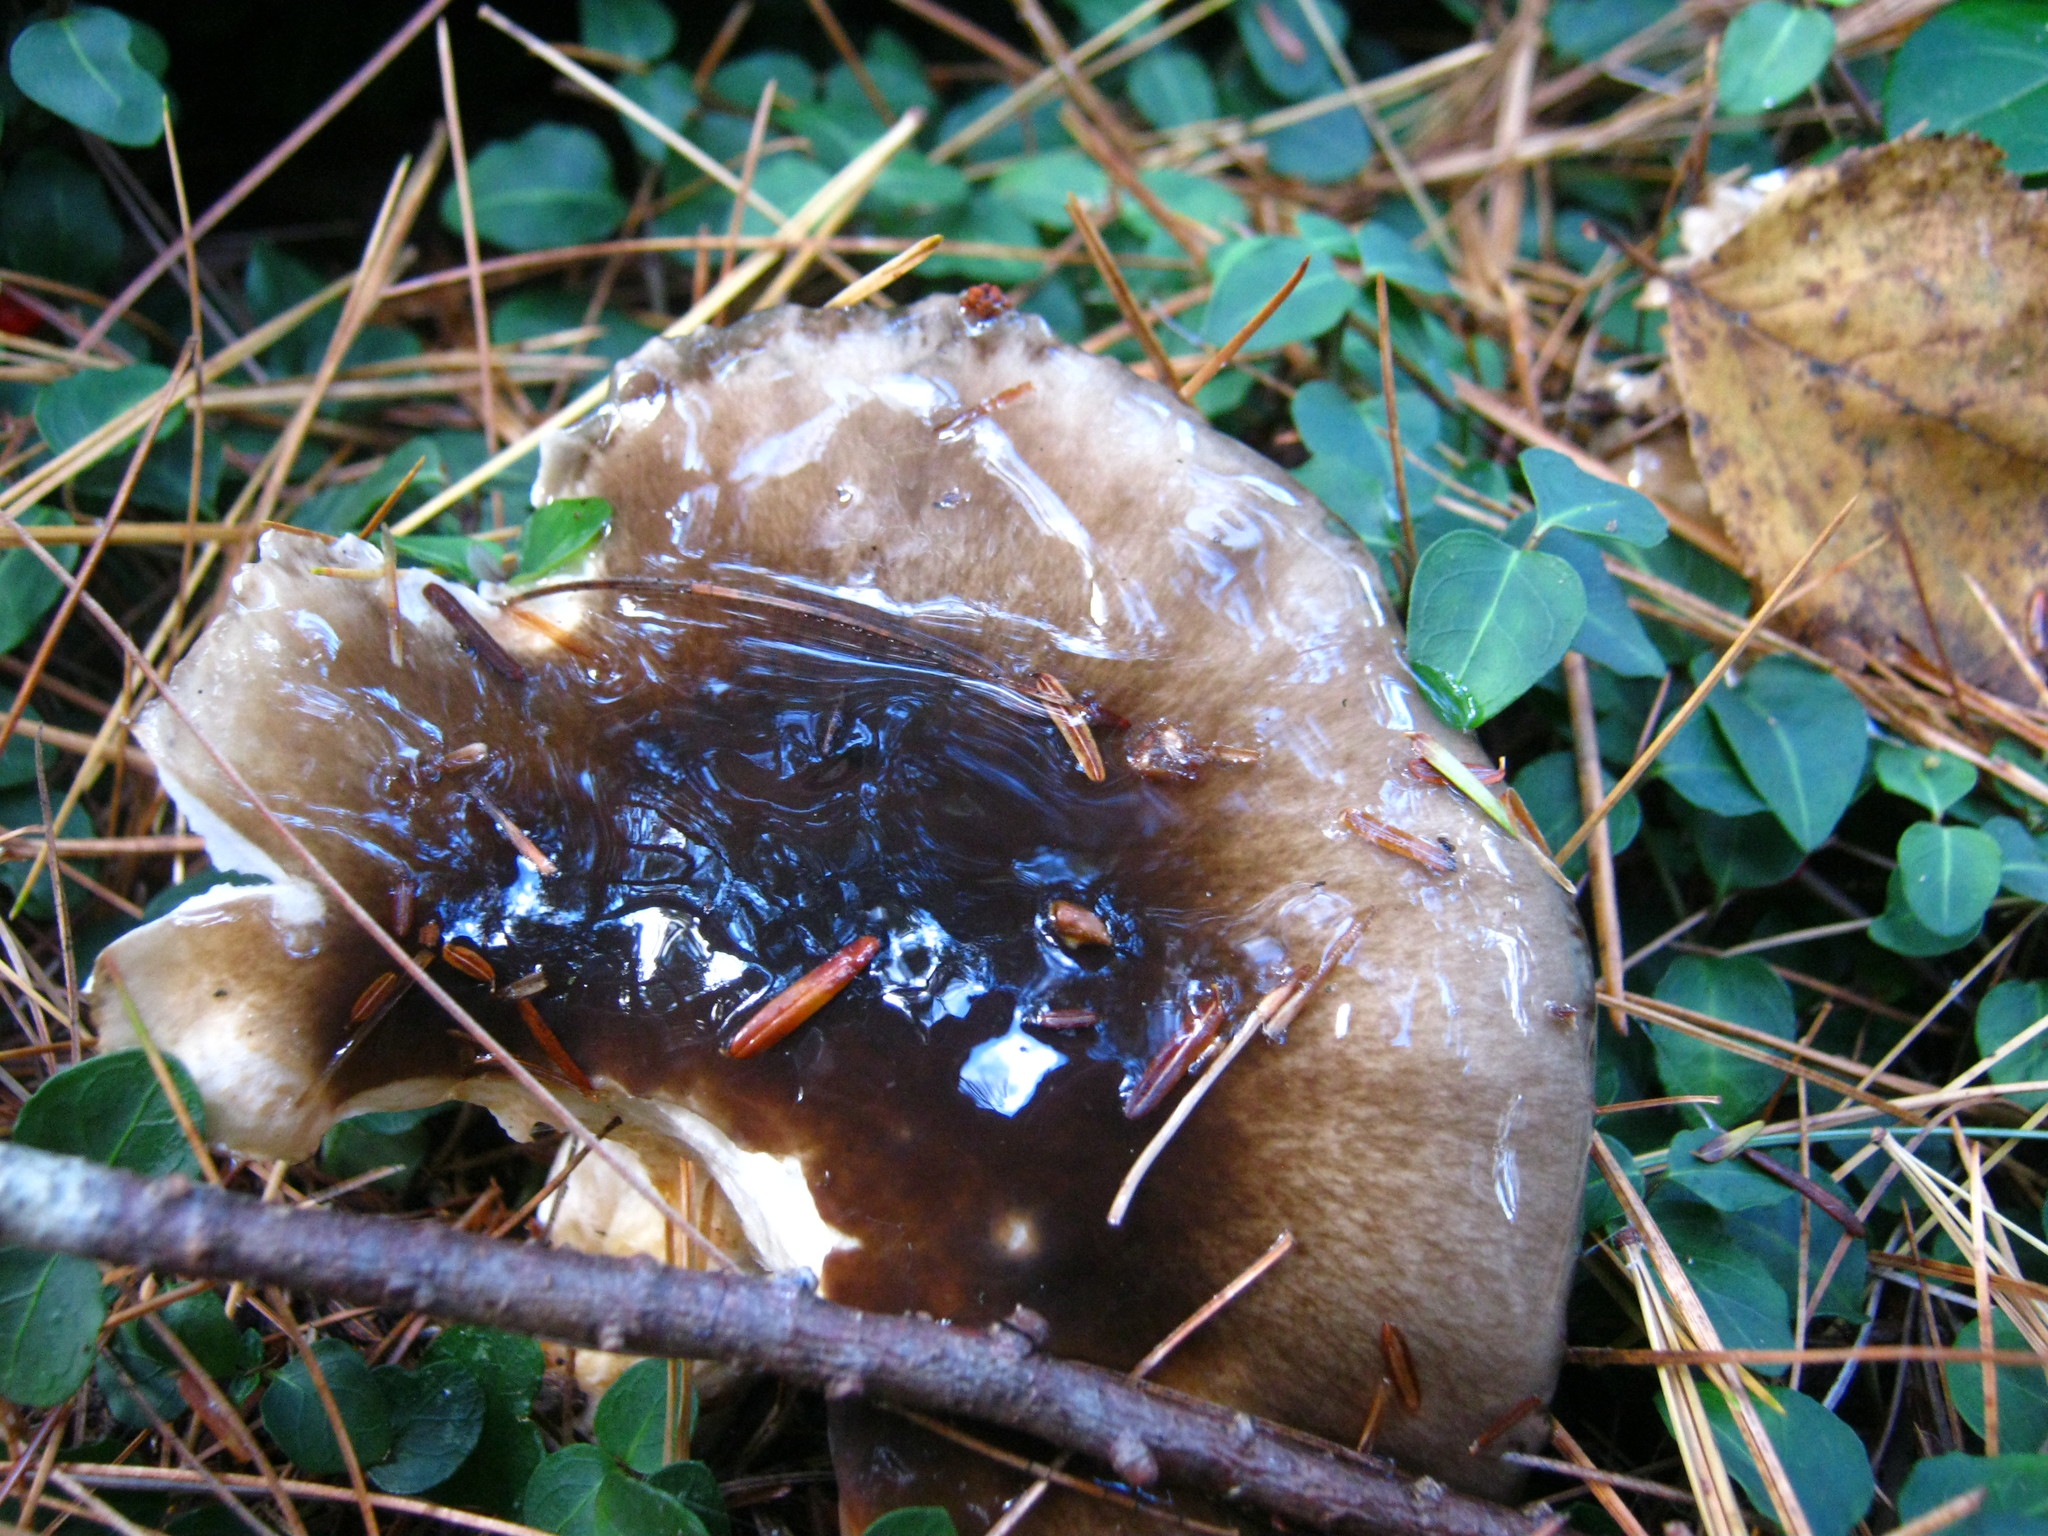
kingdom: Fungi
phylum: Basidiomycota
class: Agaricomycetes
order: Agaricales
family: Hygrophoraceae
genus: Hygrophorus
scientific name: Hygrophorus fuligineus
